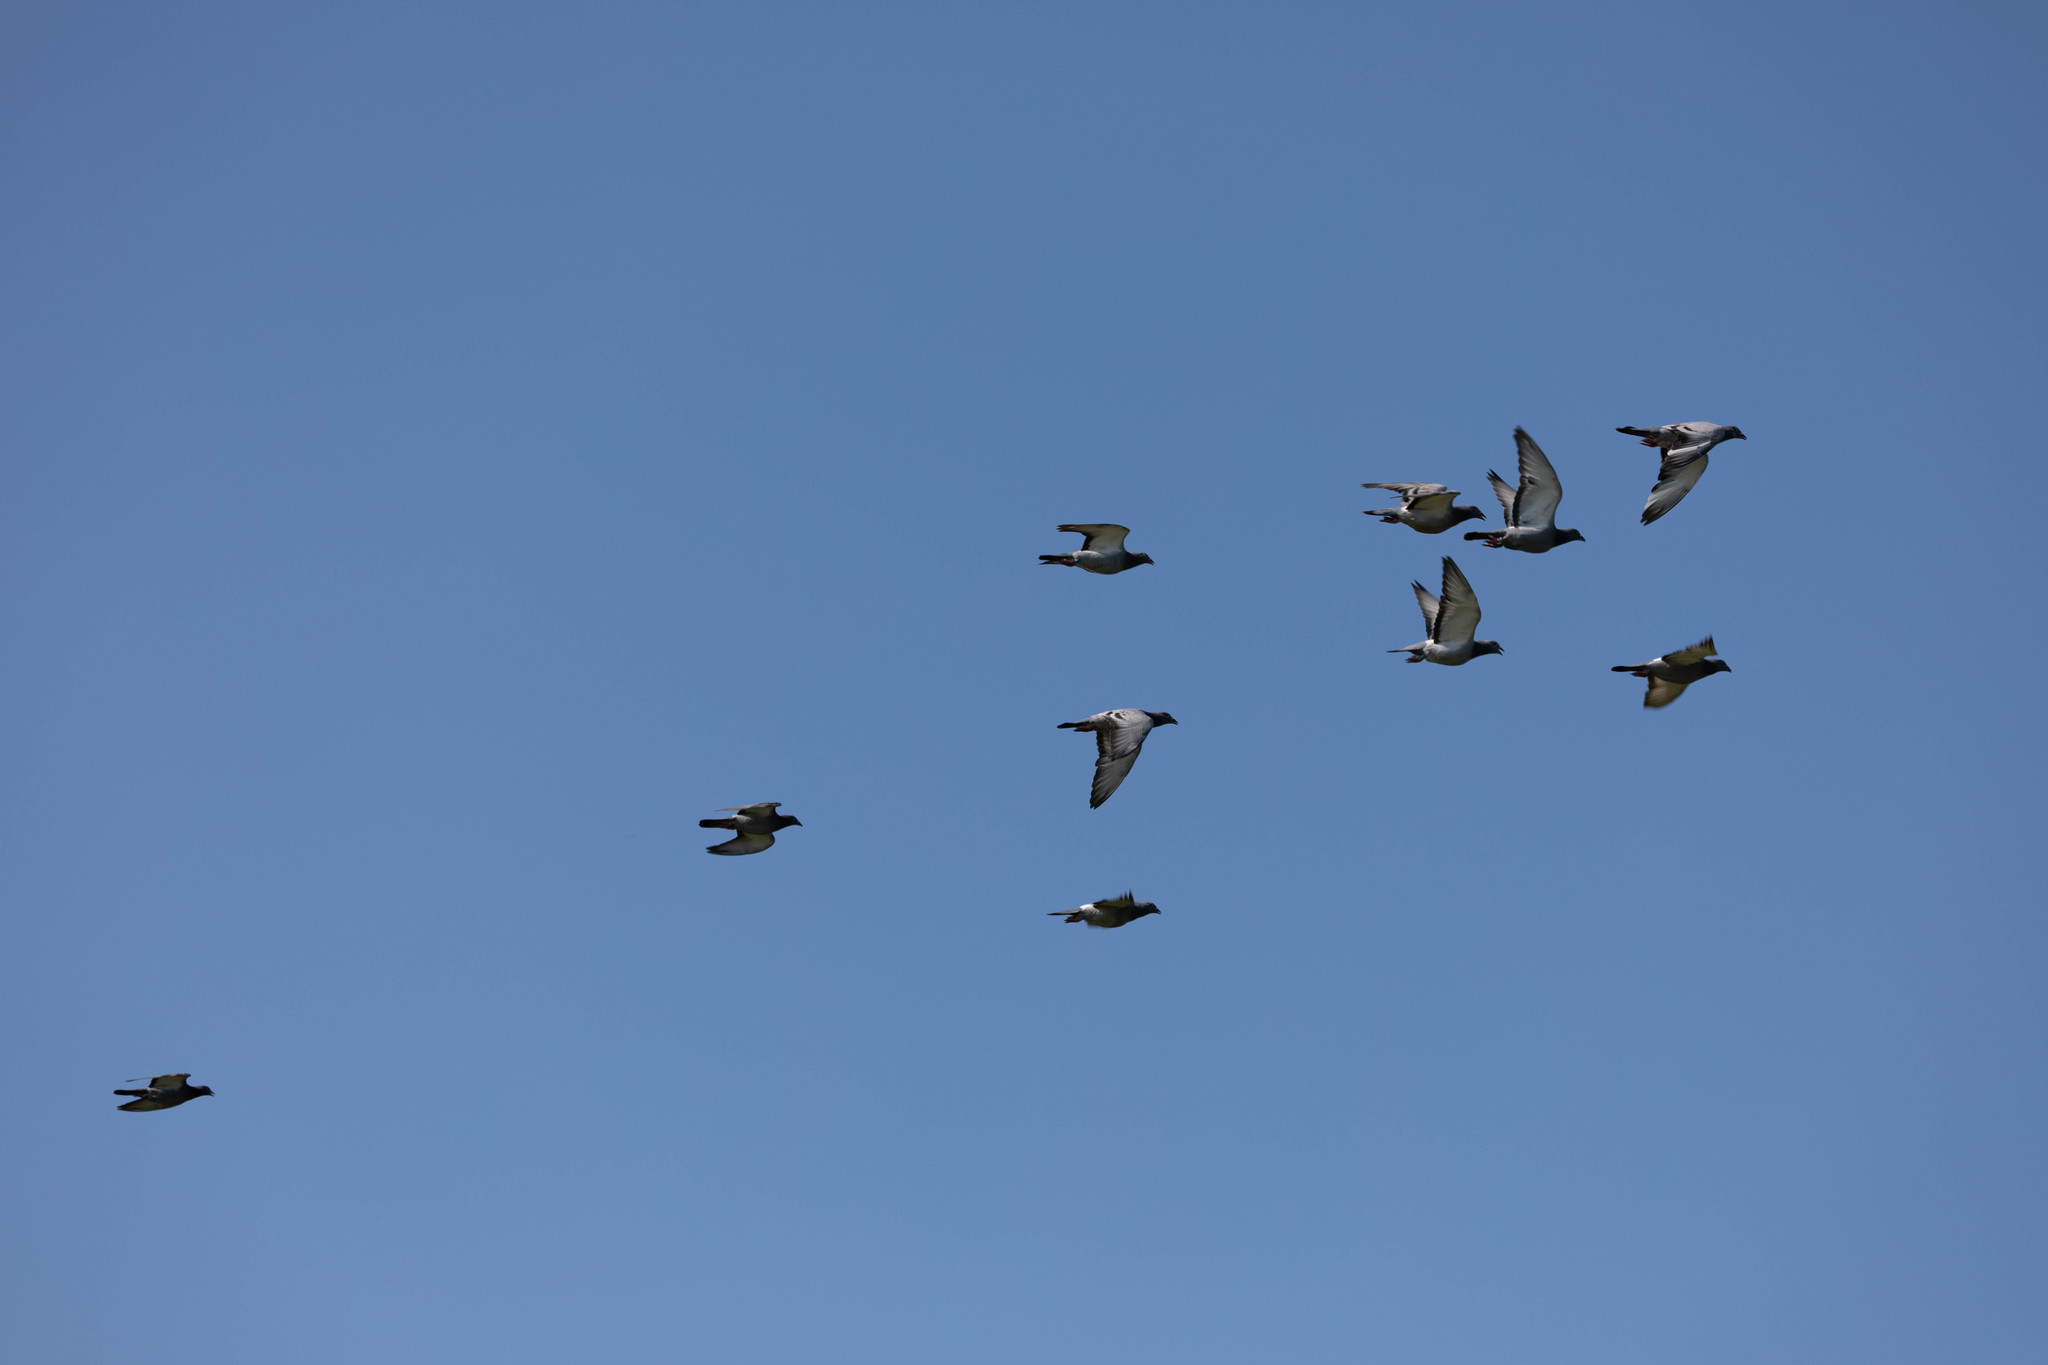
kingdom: Animalia
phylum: Chordata
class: Aves
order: Columbiformes
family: Columbidae
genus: Columba
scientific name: Columba livia
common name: Rock pigeon
